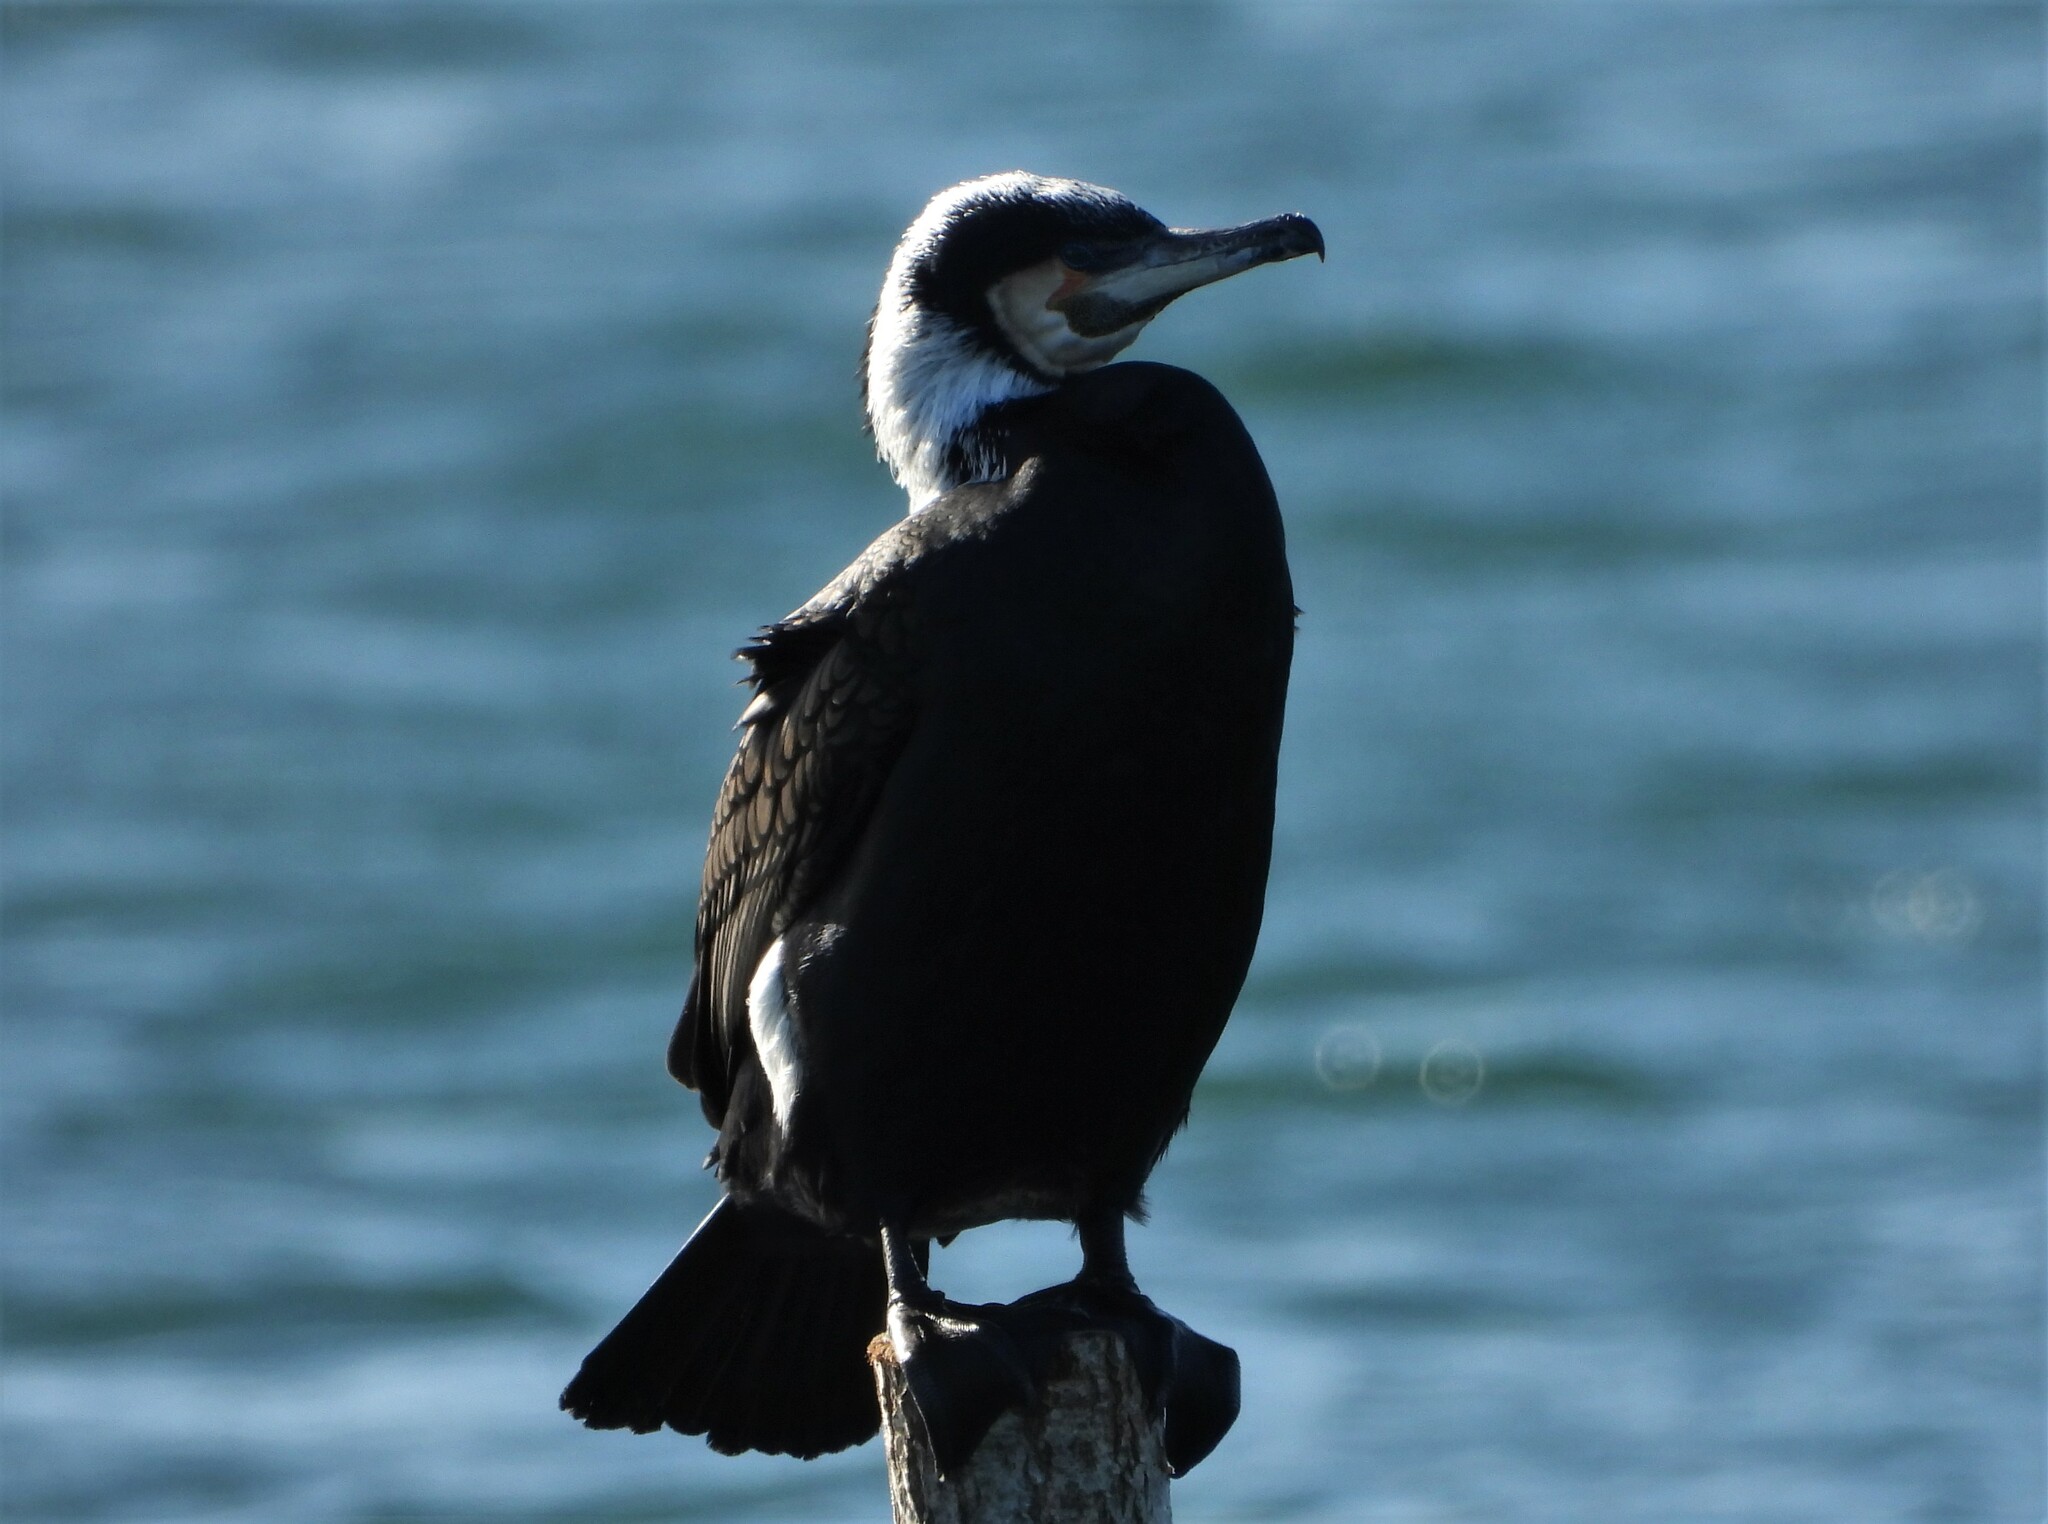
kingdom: Animalia
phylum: Chordata
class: Aves
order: Suliformes
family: Phalacrocoracidae
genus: Phalacrocorax
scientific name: Phalacrocorax carbo
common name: Great cormorant
